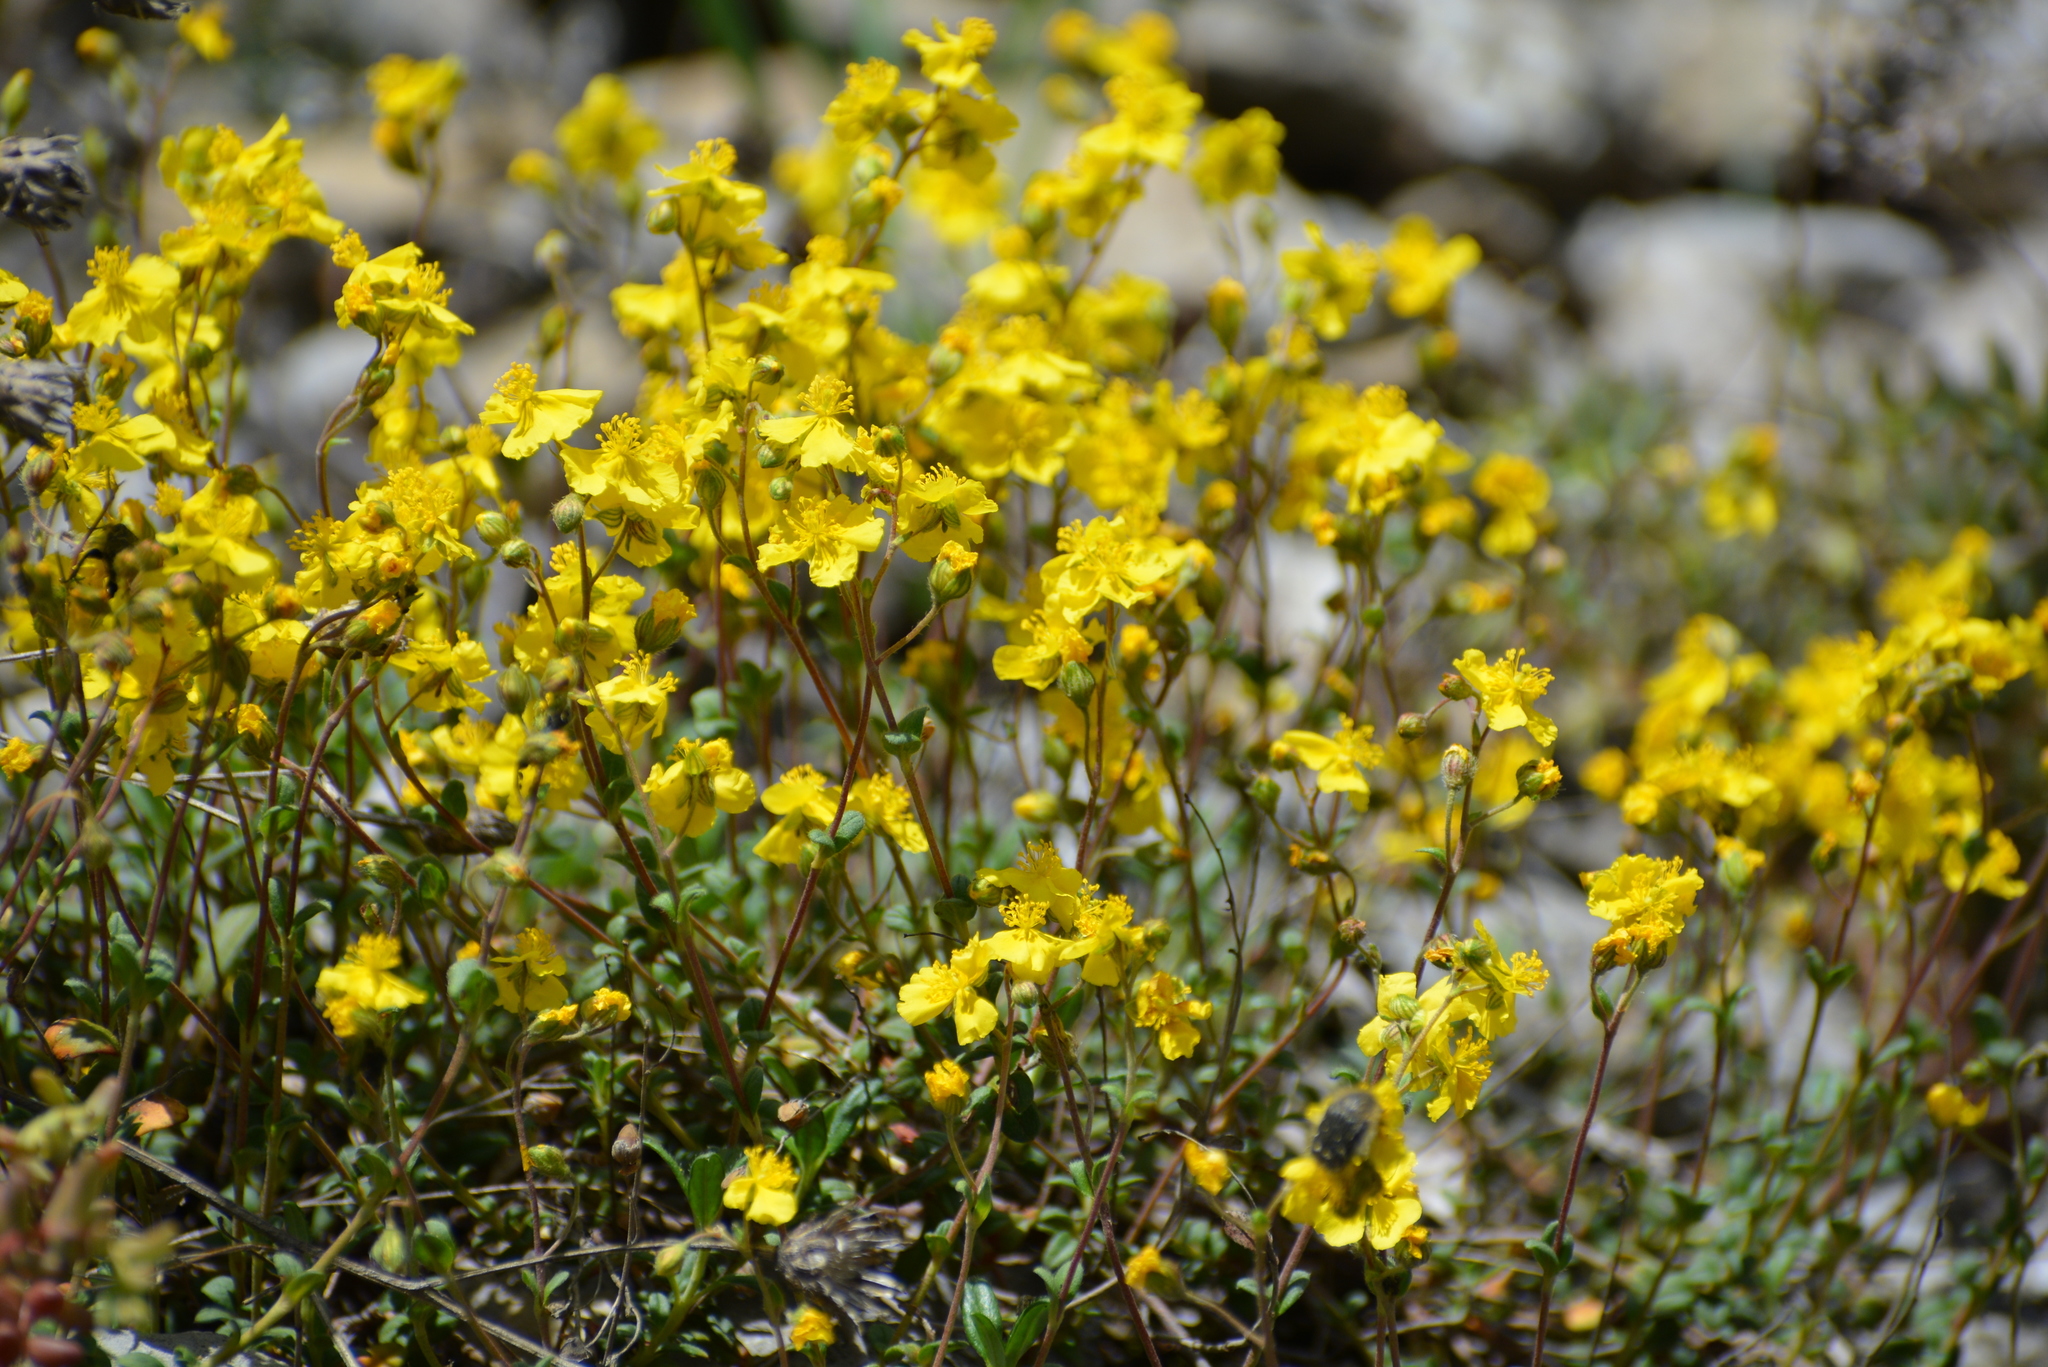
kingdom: Plantae
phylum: Tracheophyta
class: Magnoliopsida
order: Malvales
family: Cistaceae
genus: Helianthemum
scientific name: Helianthemum canum
